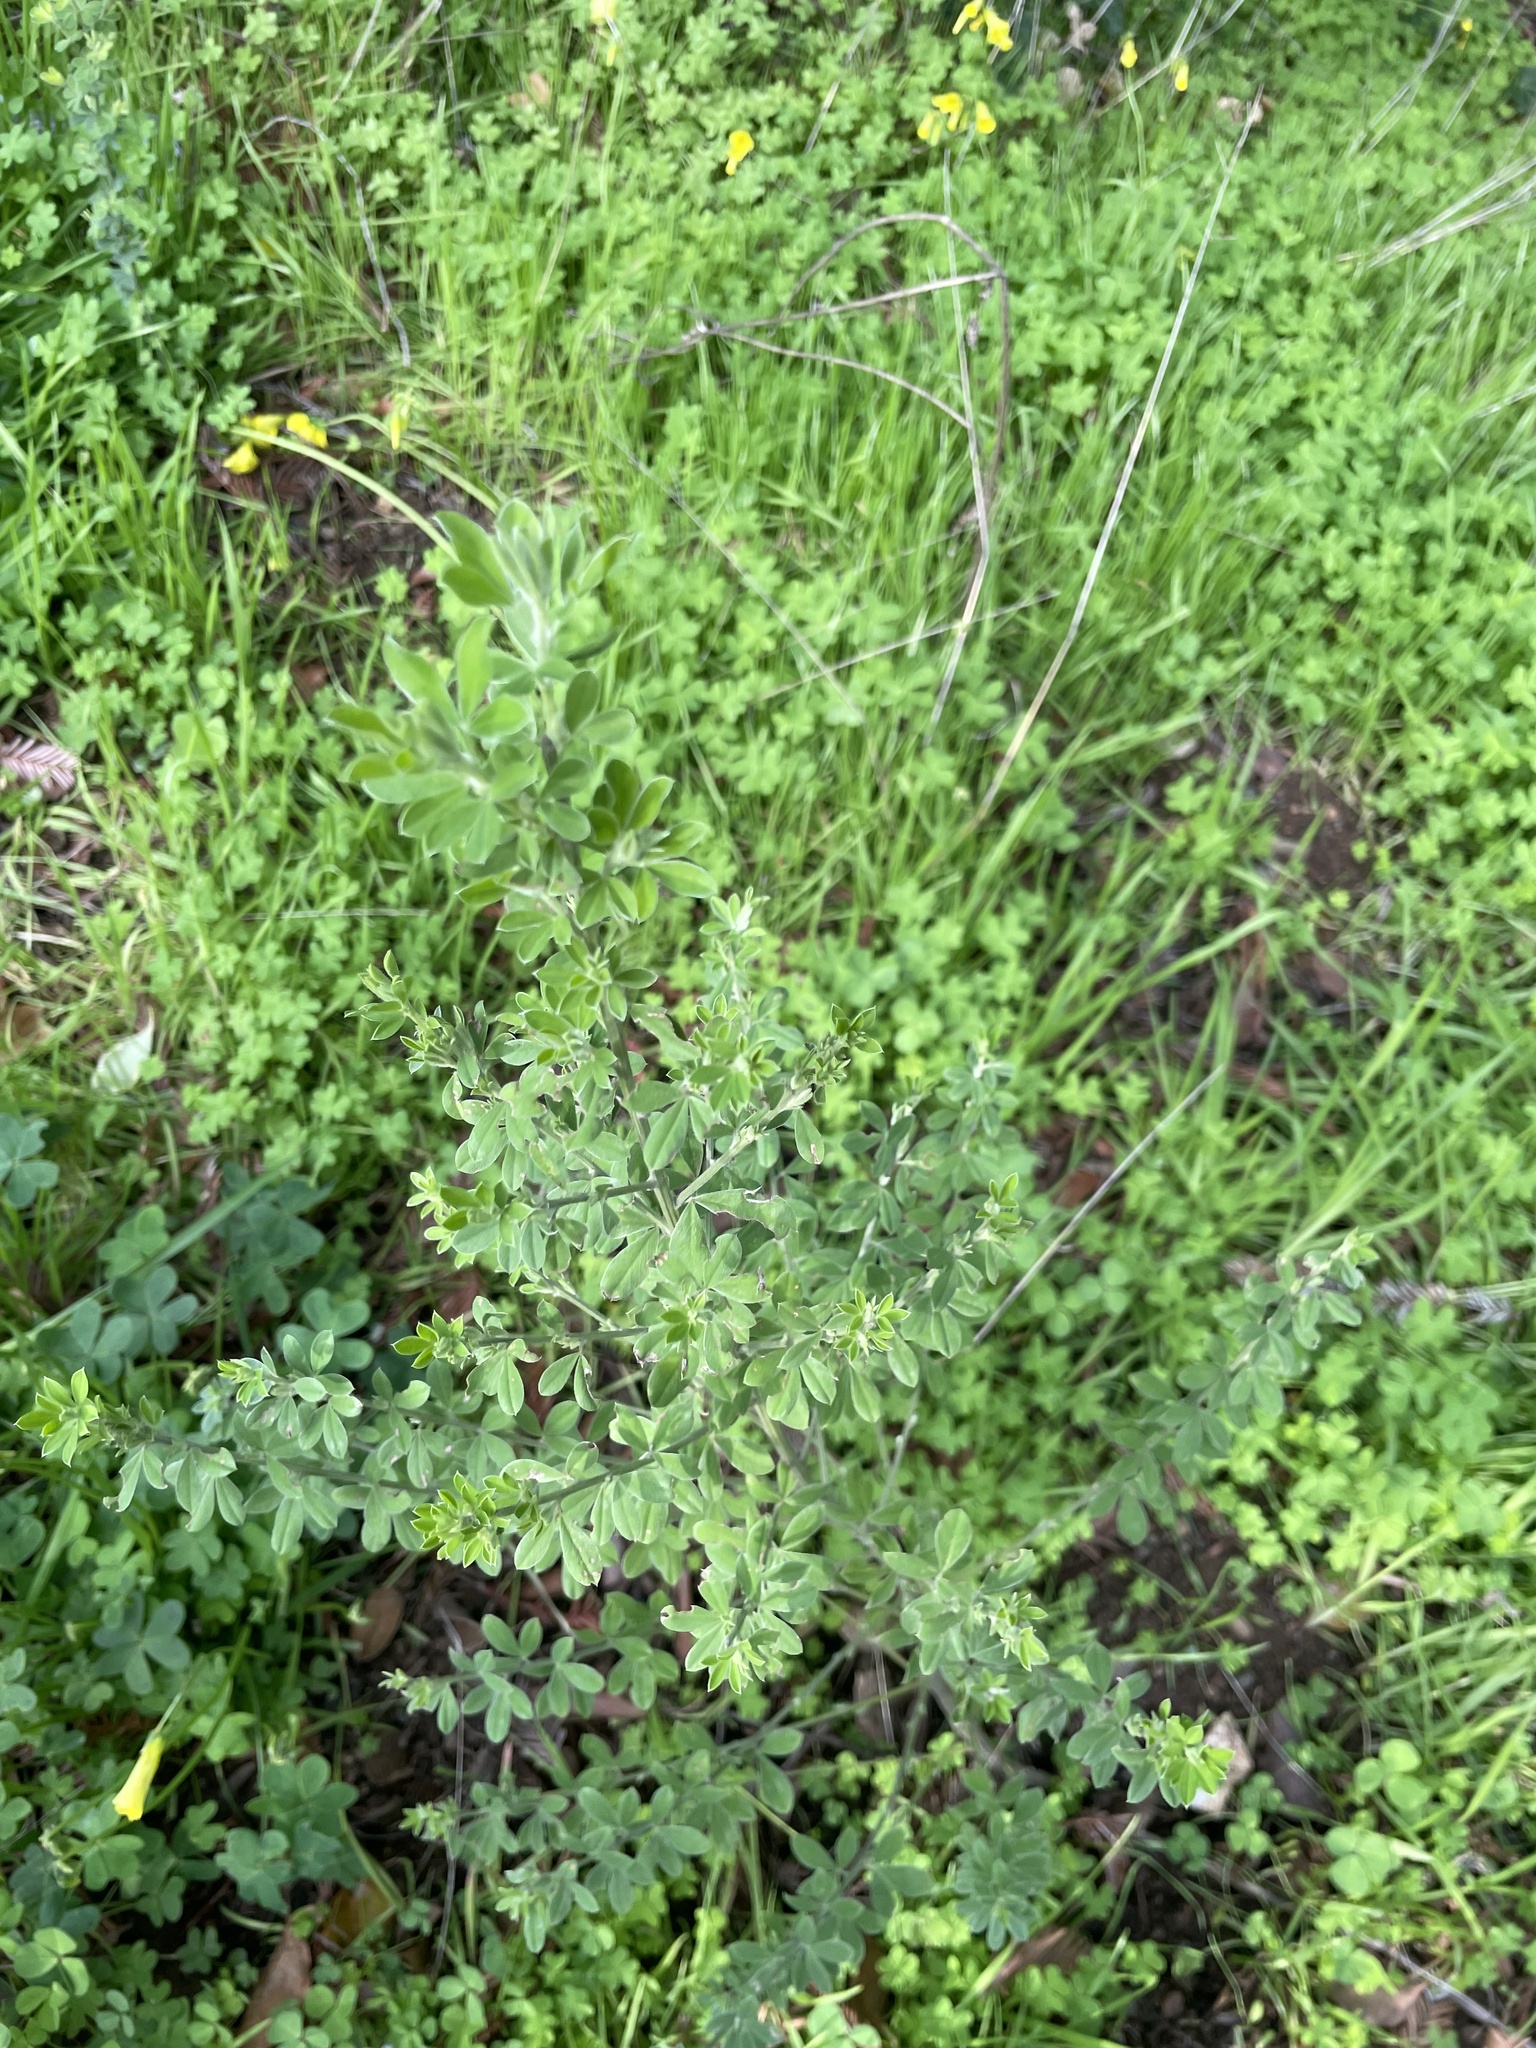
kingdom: Plantae
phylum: Tracheophyta
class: Magnoliopsida
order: Fabales
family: Fabaceae
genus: Genista
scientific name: Genista monspessulana
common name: Montpellier broom
